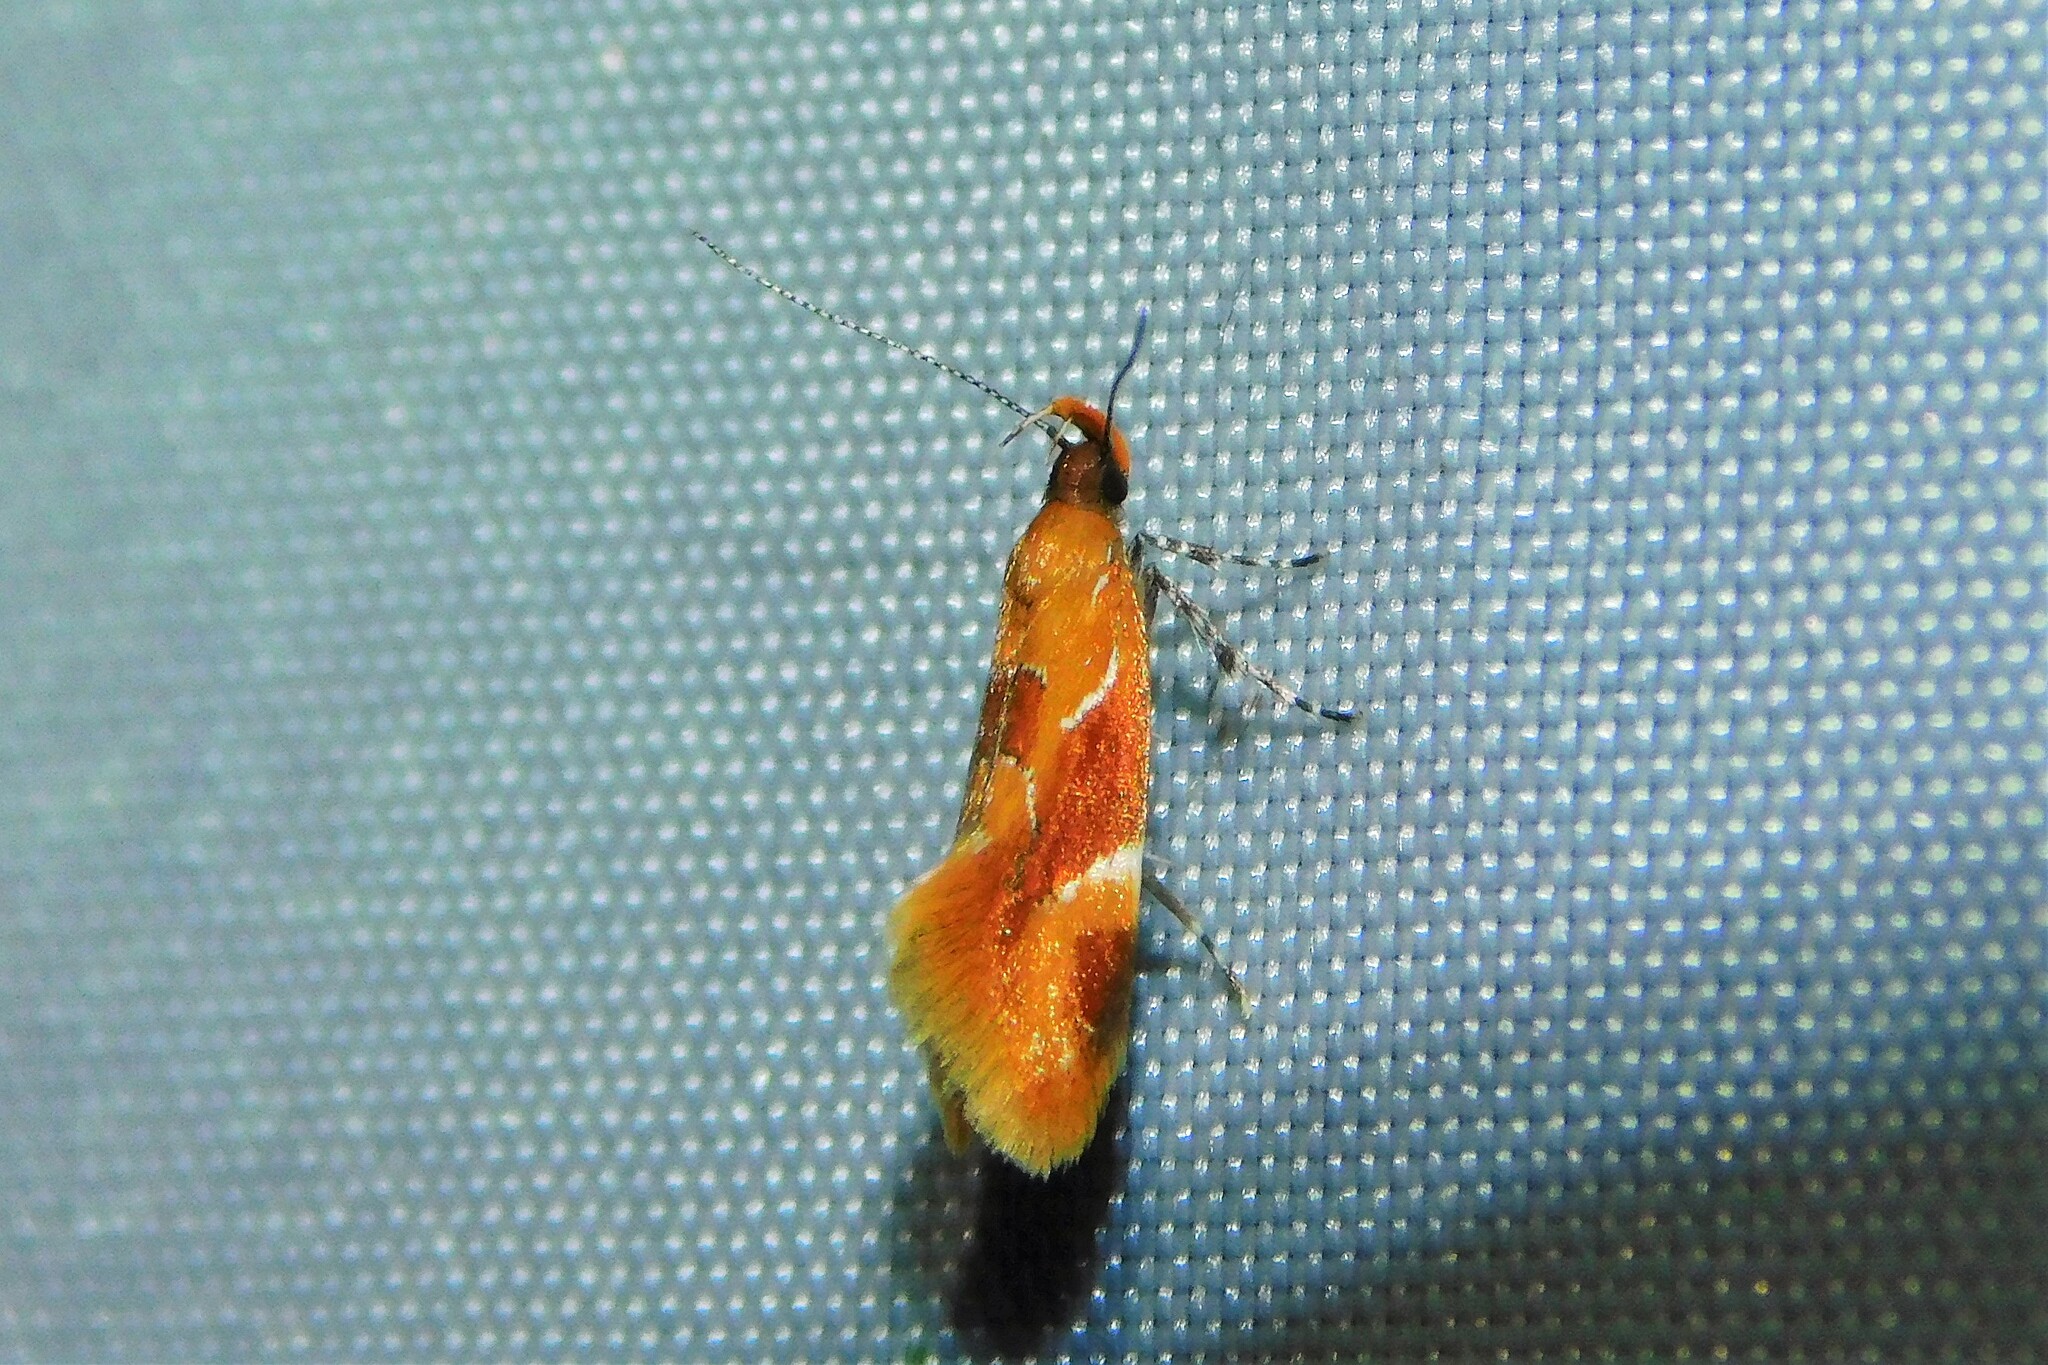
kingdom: Animalia
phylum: Arthropoda
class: Insecta
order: Lepidoptera
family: Oecophoridae
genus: Callima
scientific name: Callima formosella
